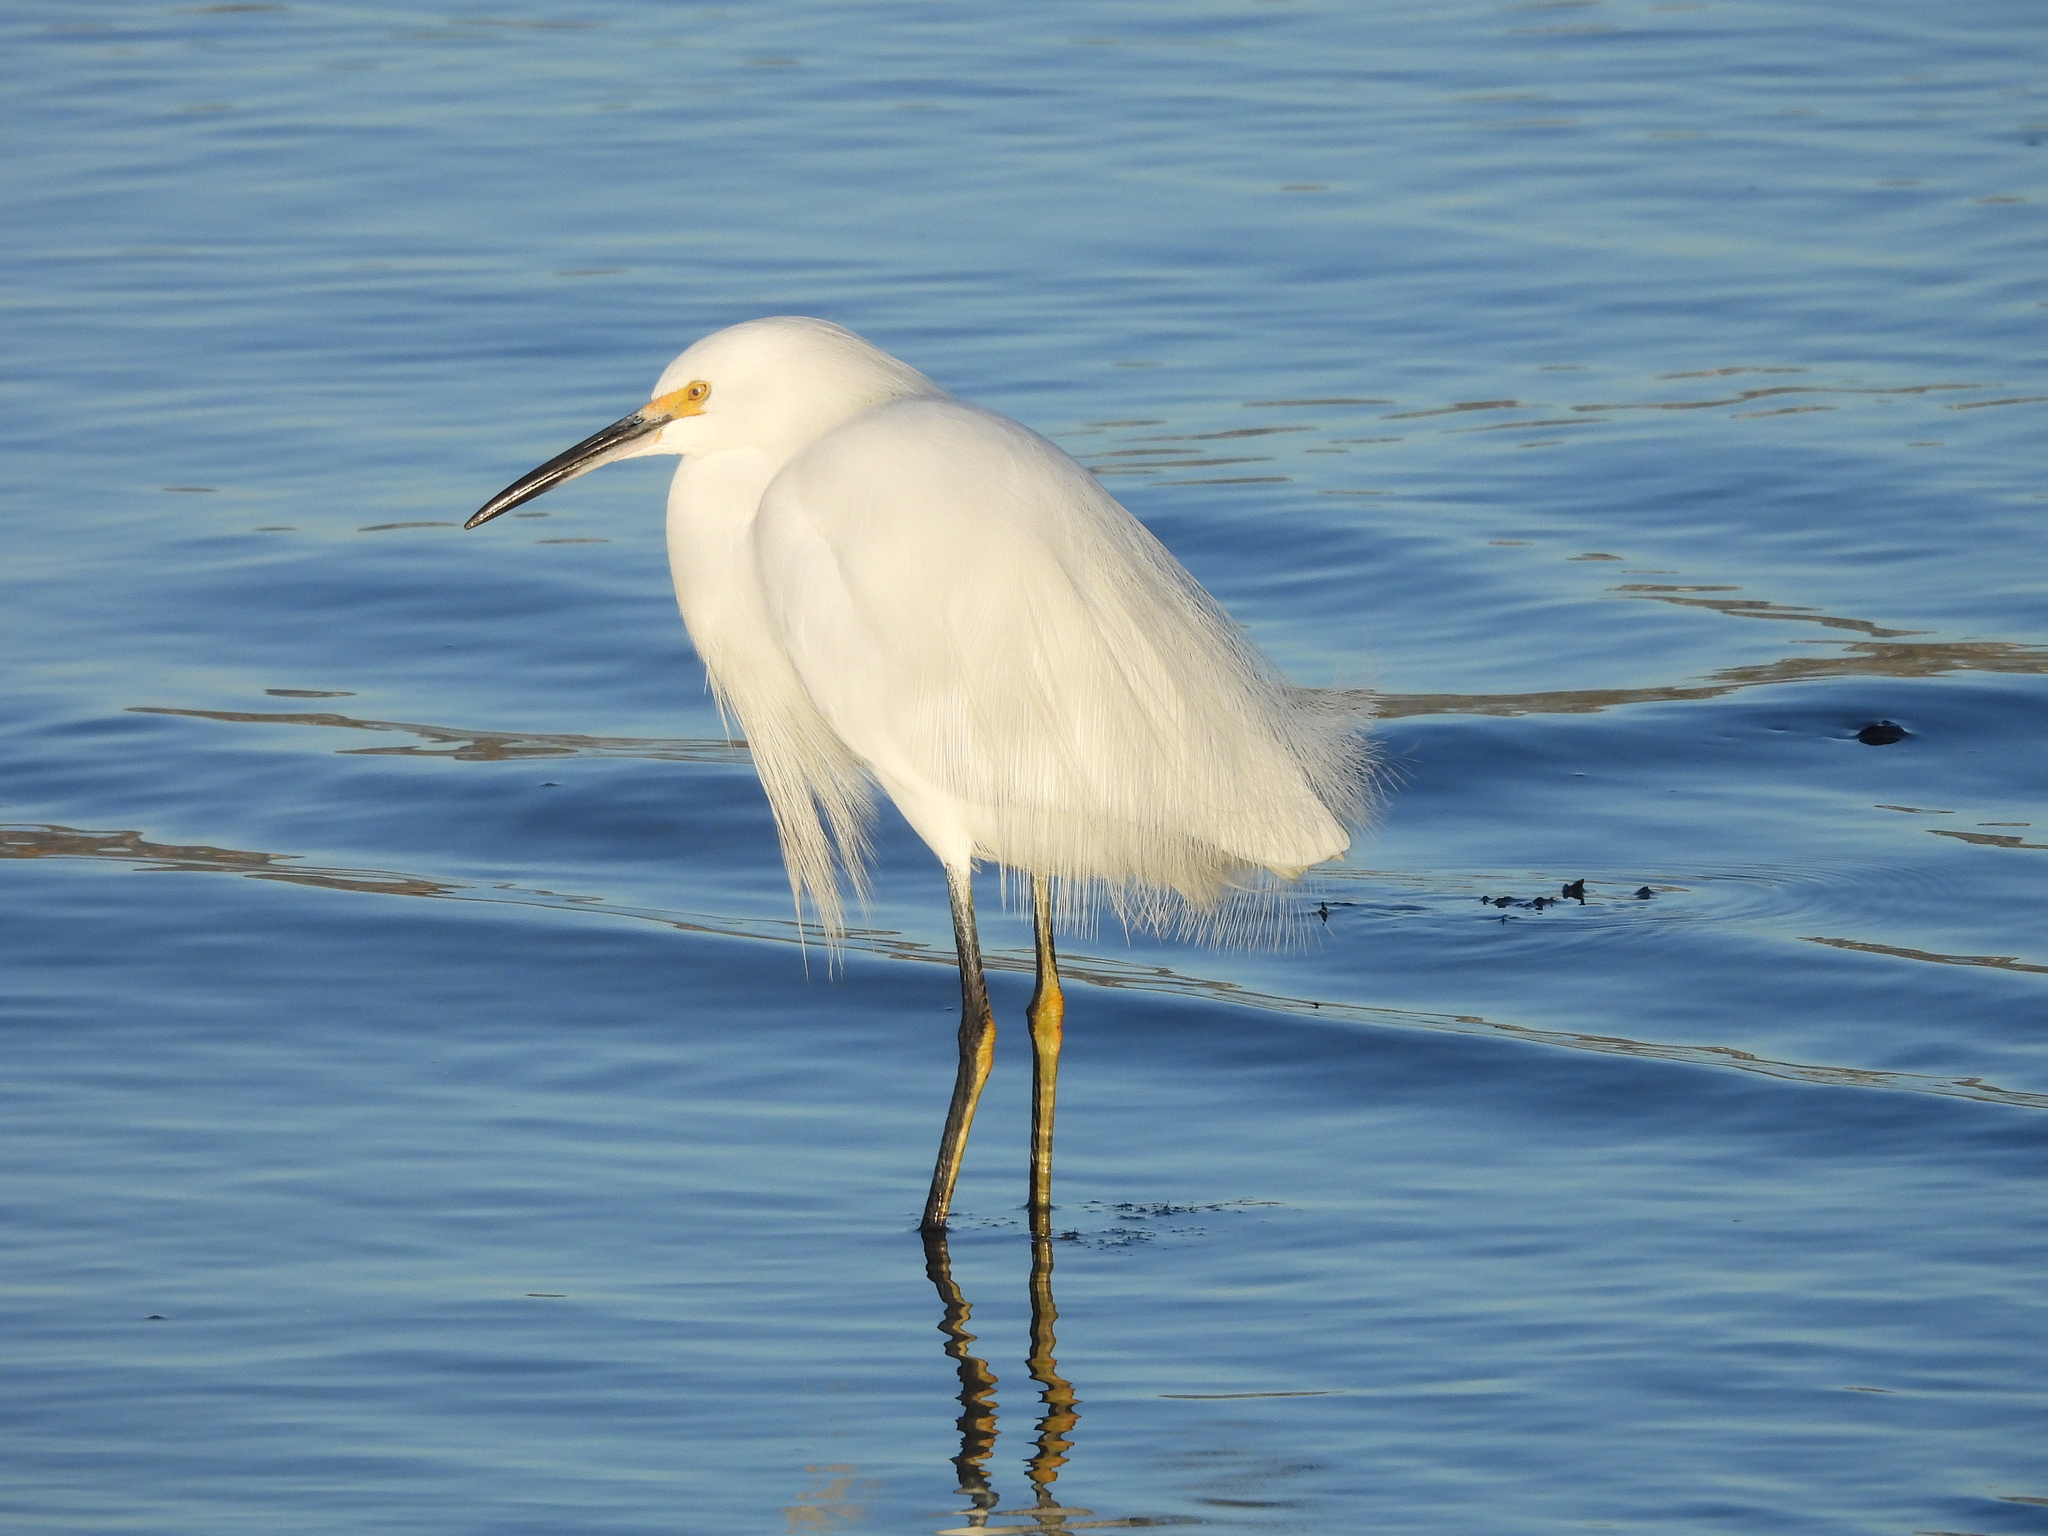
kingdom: Animalia
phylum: Chordata
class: Aves
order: Pelecaniformes
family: Ardeidae
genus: Egretta
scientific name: Egretta thula
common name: Snowy egret
